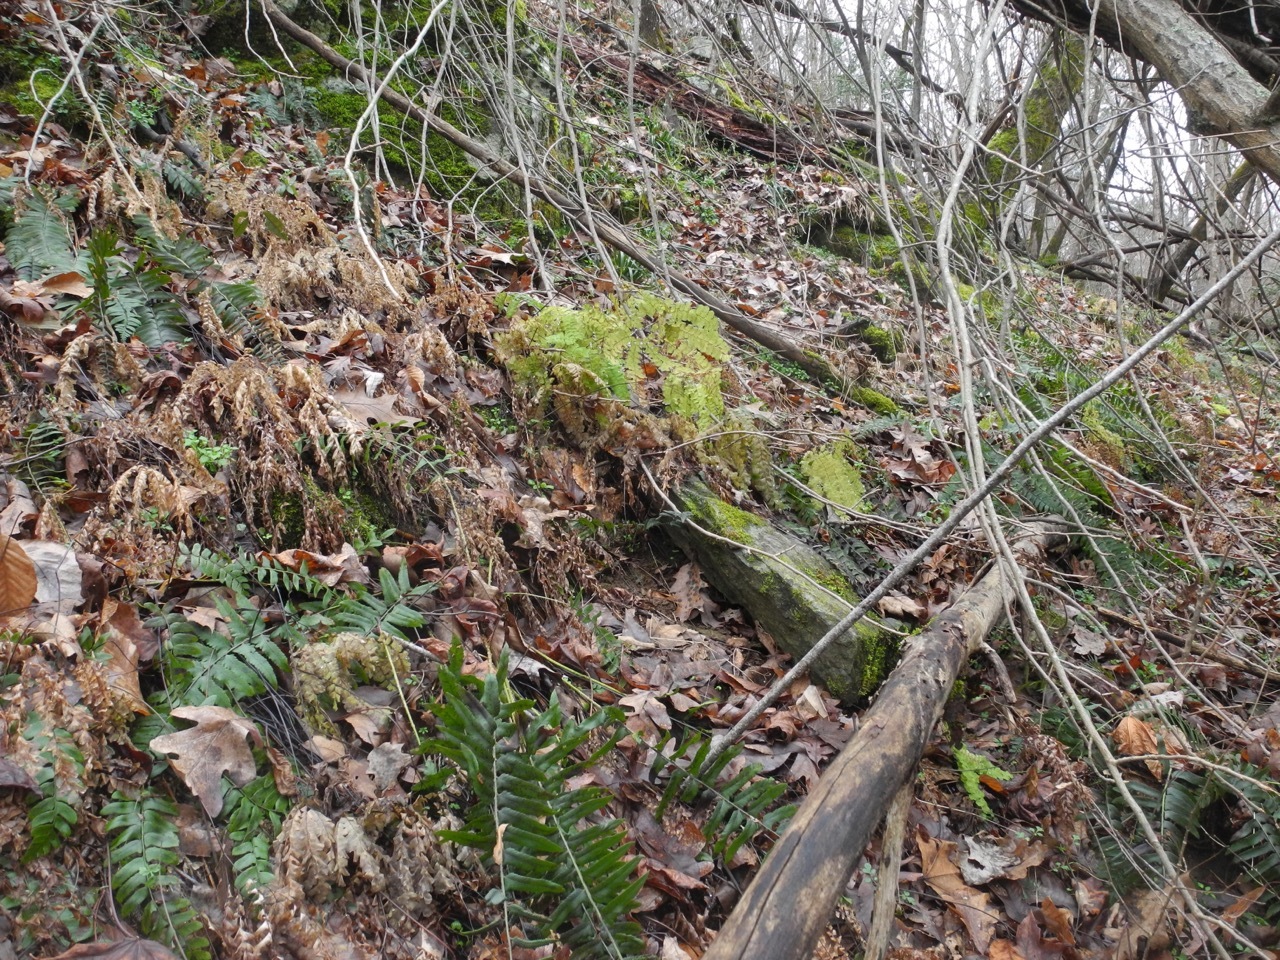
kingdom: Plantae
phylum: Tracheophyta
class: Polypodiopsida
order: Polypodiales
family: Pteridaceae
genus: Adiantum
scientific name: Adiantum pedatum
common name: Five-finger fern
